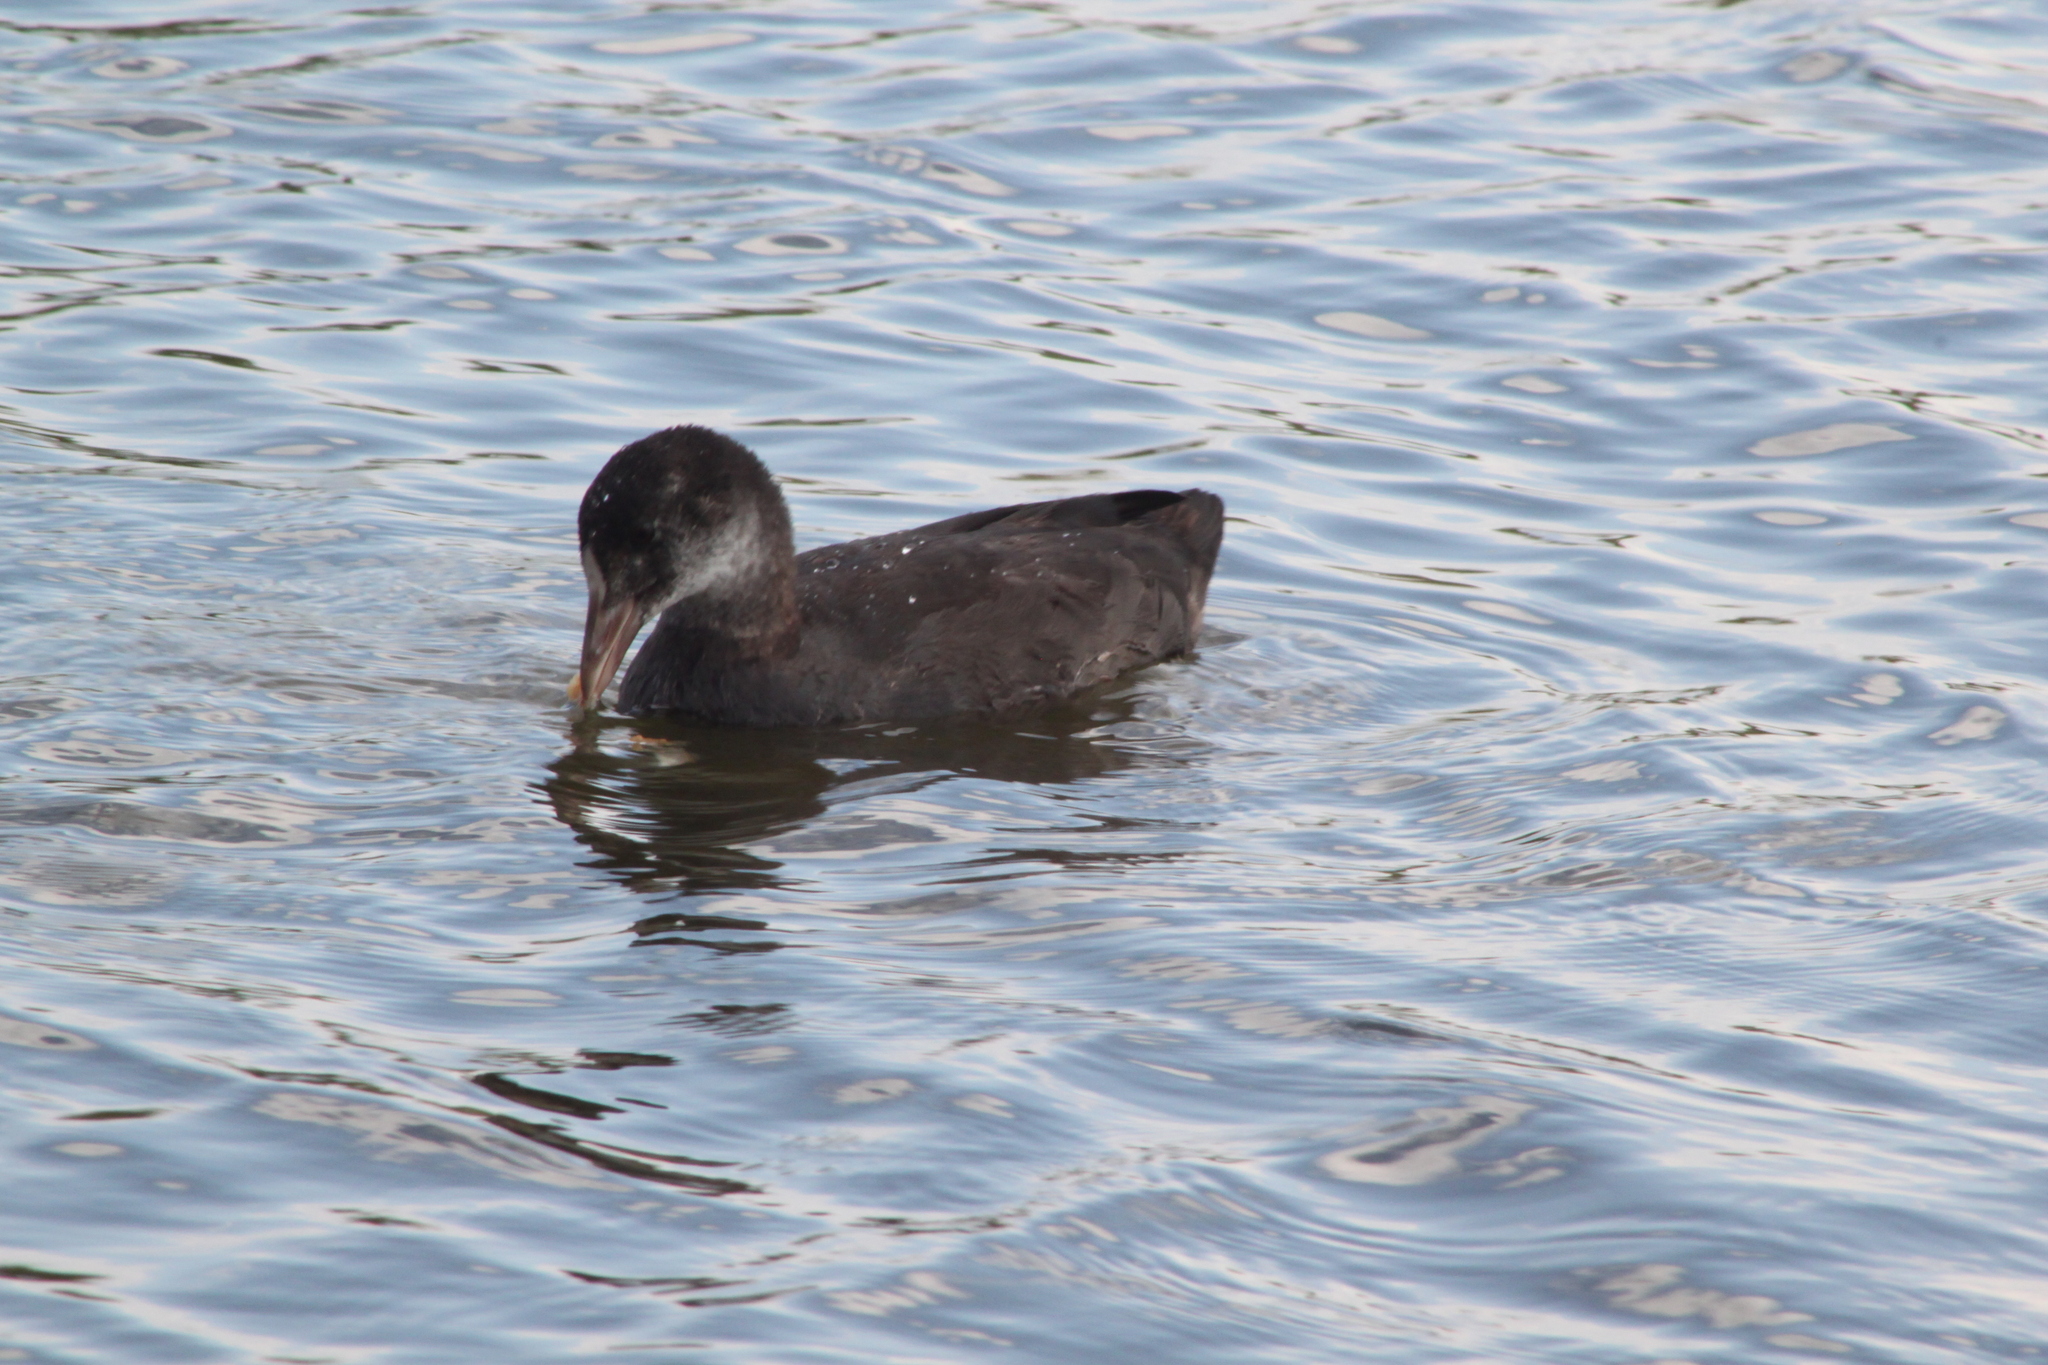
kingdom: Animalia
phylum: Chordata
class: Aves
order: Gruiformes
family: Rallidae
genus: Fulica
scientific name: Fulica atra
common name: Eurasian coot
